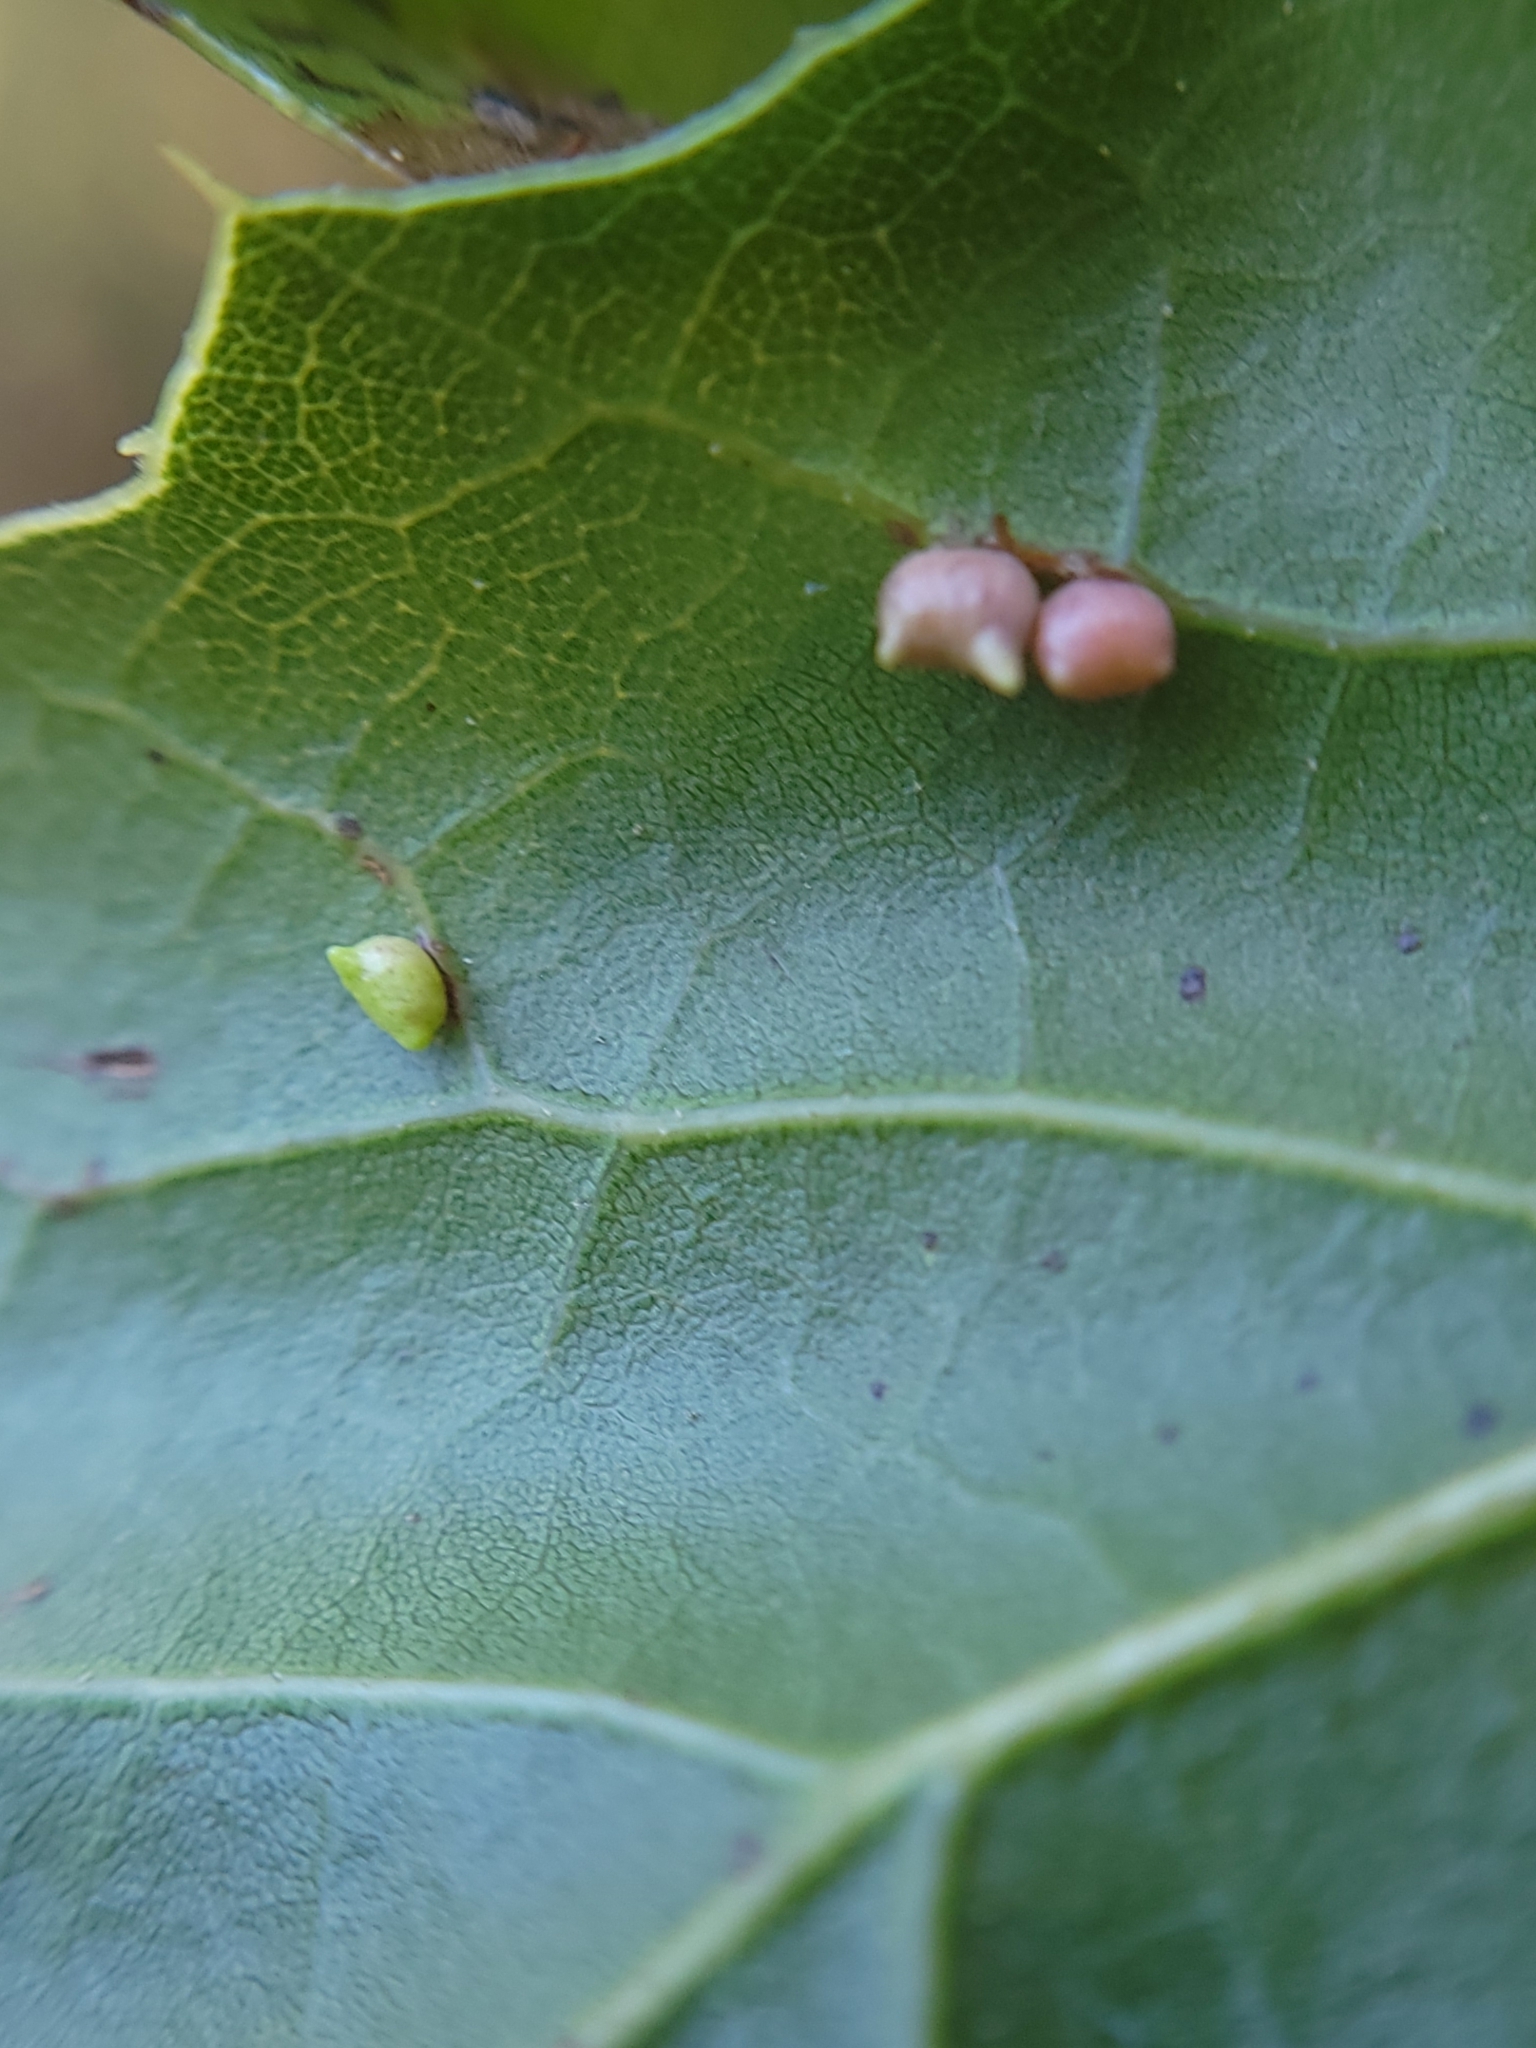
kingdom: Animalia
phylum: Arthropoda
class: Insecta
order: Hymenoptera
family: Cynipidae
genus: Dryocosmus
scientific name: Dryocosmus
